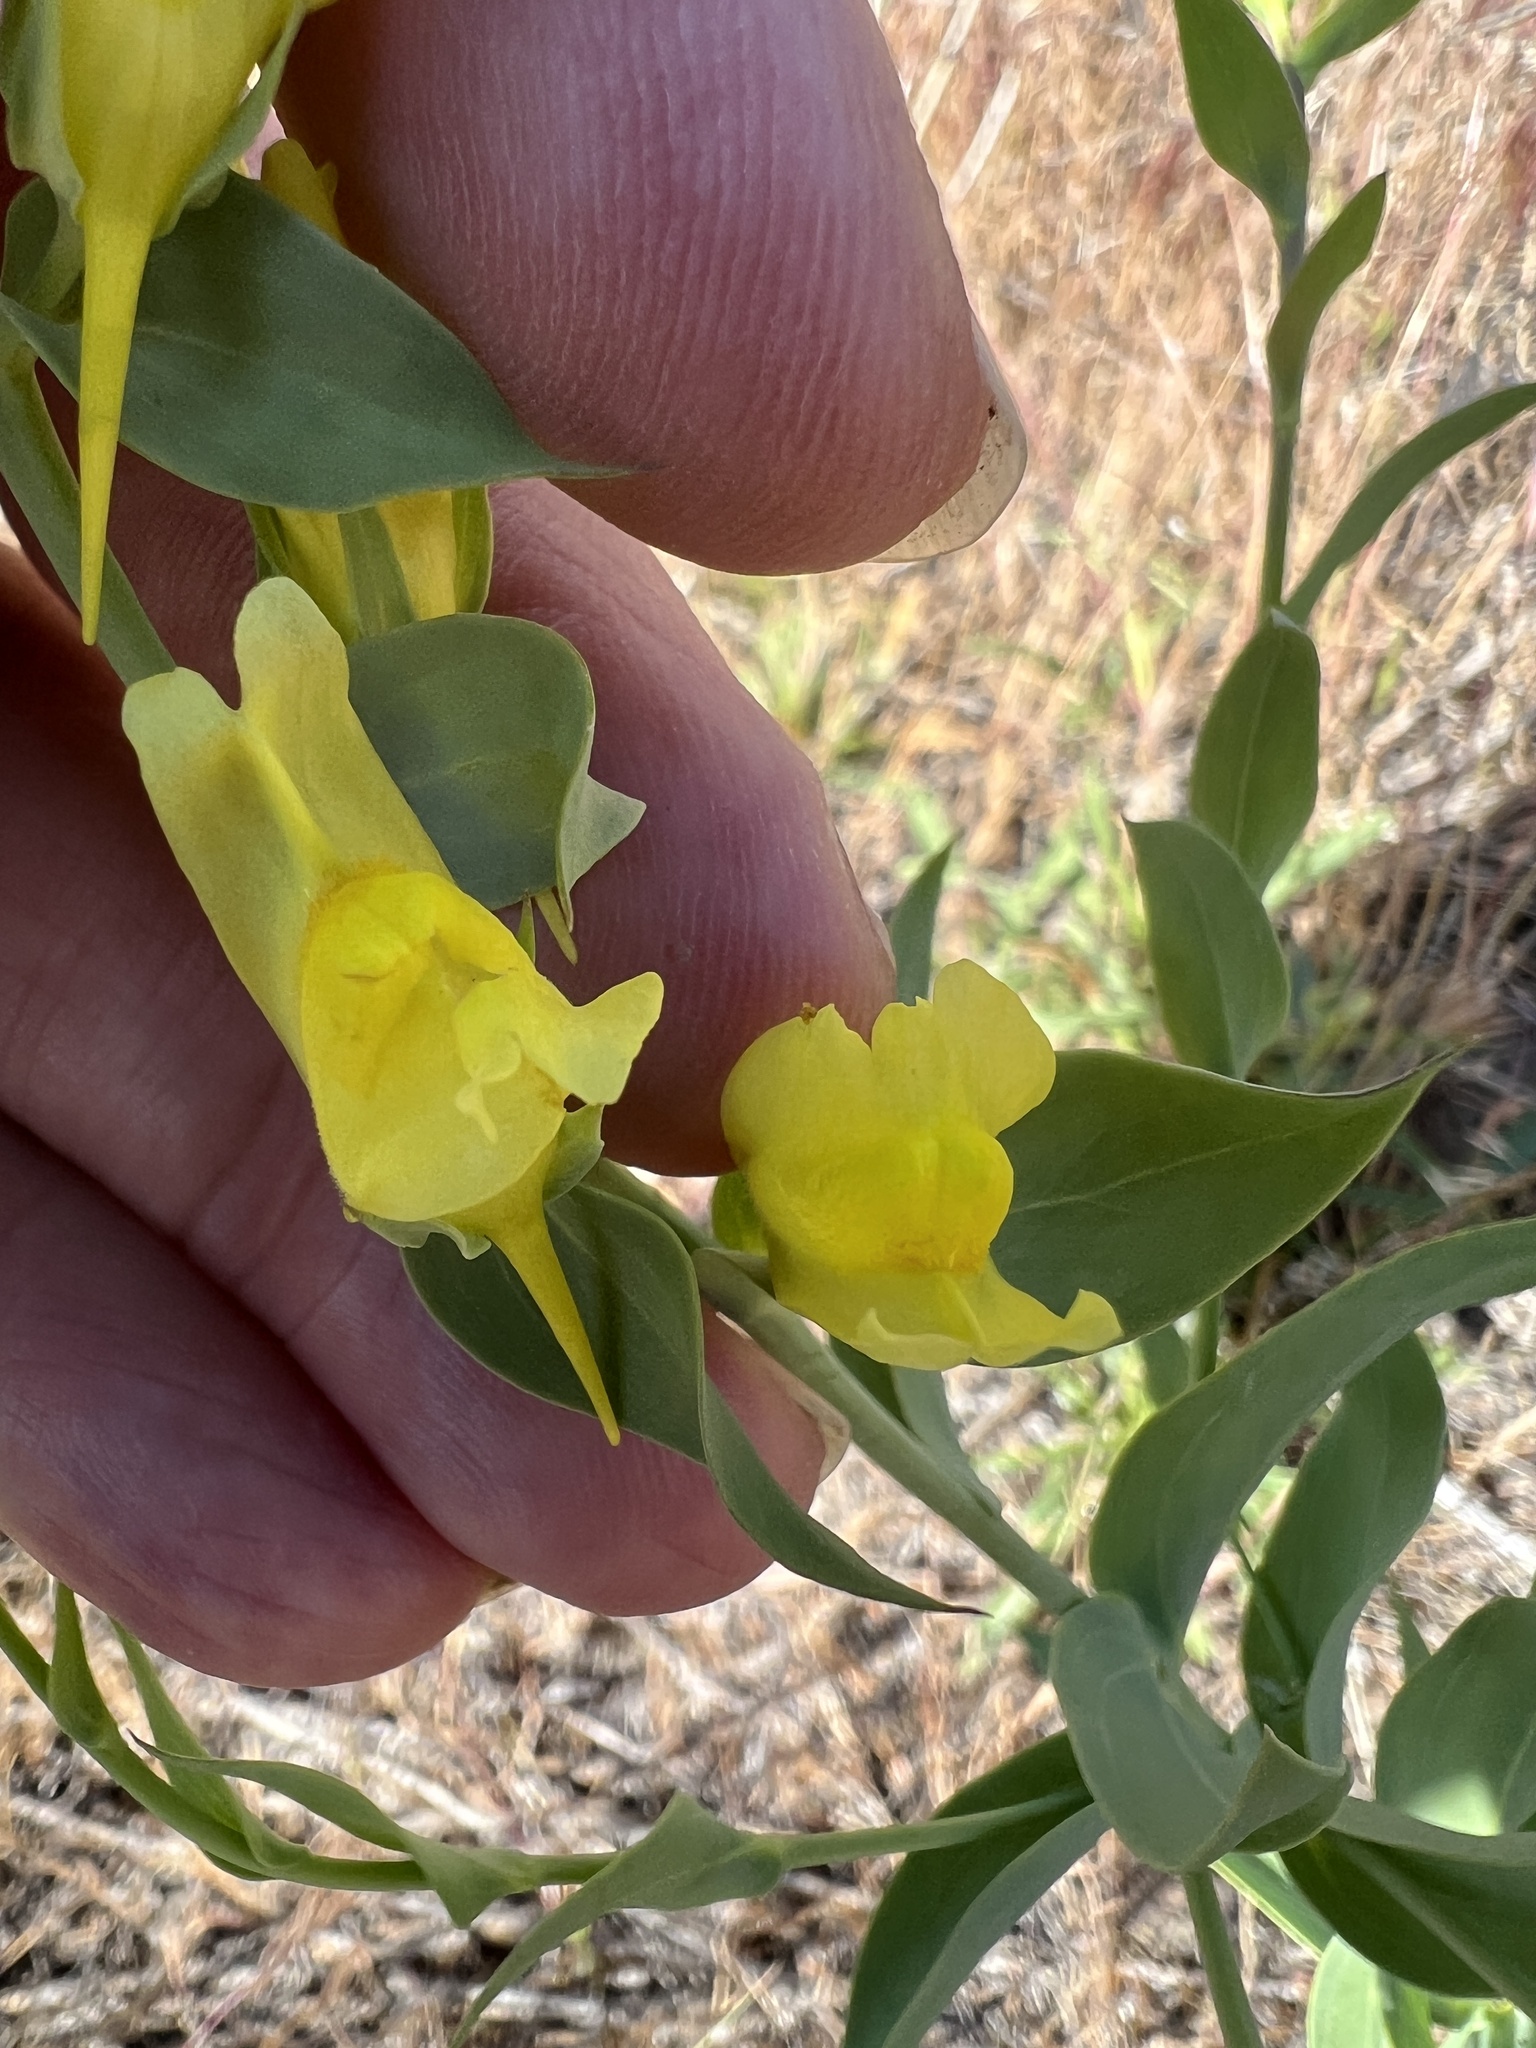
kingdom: Plantae
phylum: Tracheophyta
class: Magnoliopsida
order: Lamiales
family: Plantaginaceae
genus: Linaria
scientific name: Linaria dalmatica
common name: Dalmatian toadflax
